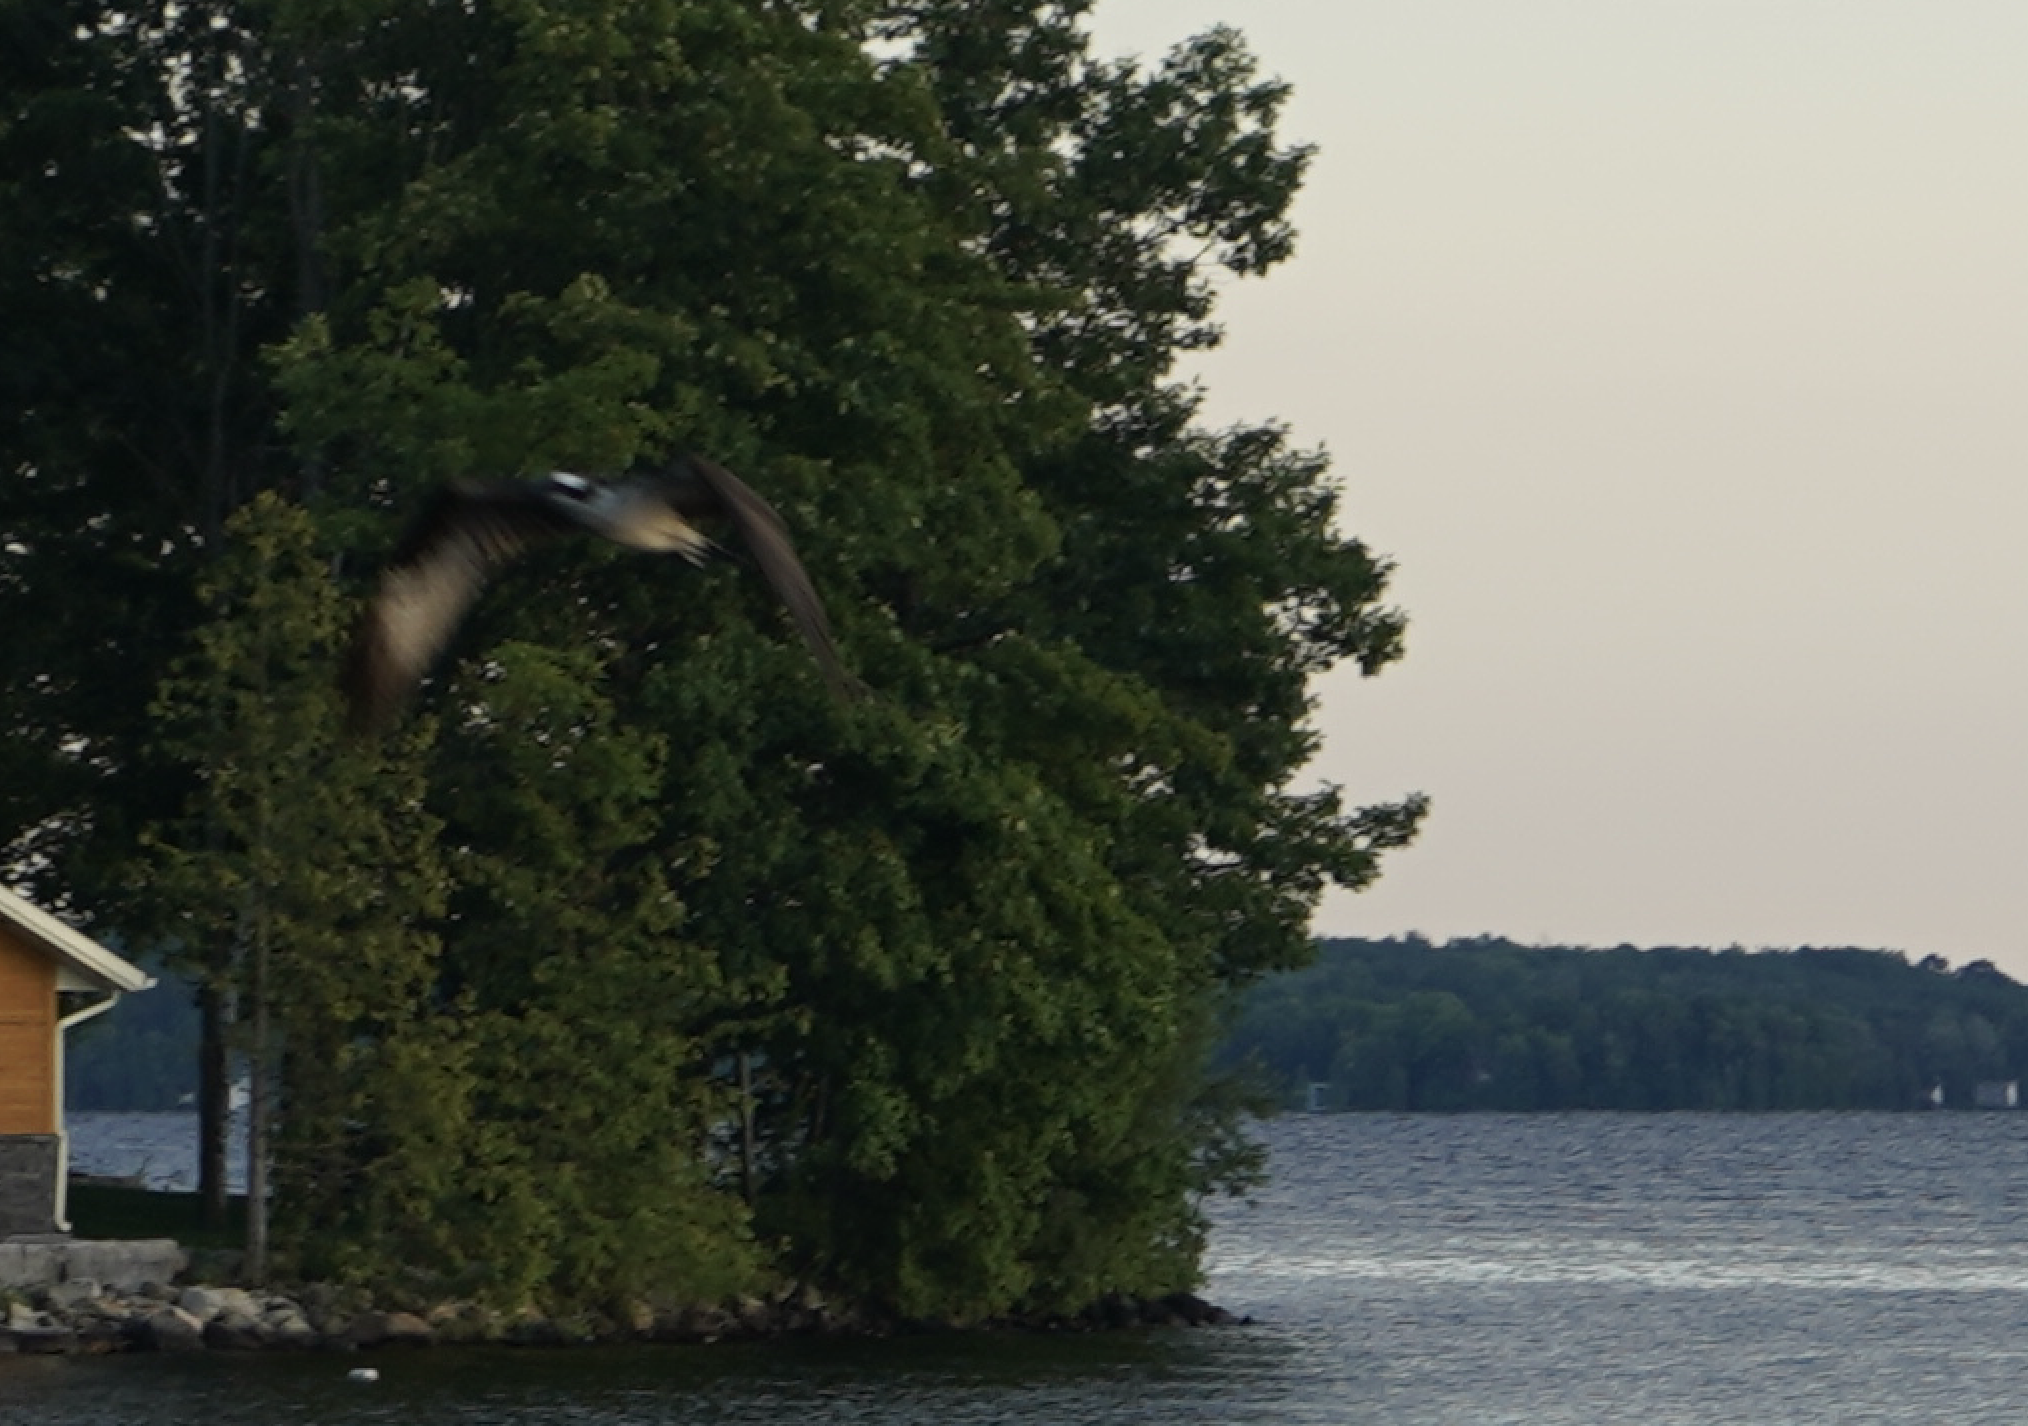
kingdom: Animalia
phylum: Chordata
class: Aves
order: Accipitriformes
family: Pandionidae
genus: Pandion
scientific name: Pandion haliaetus
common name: Osprey
